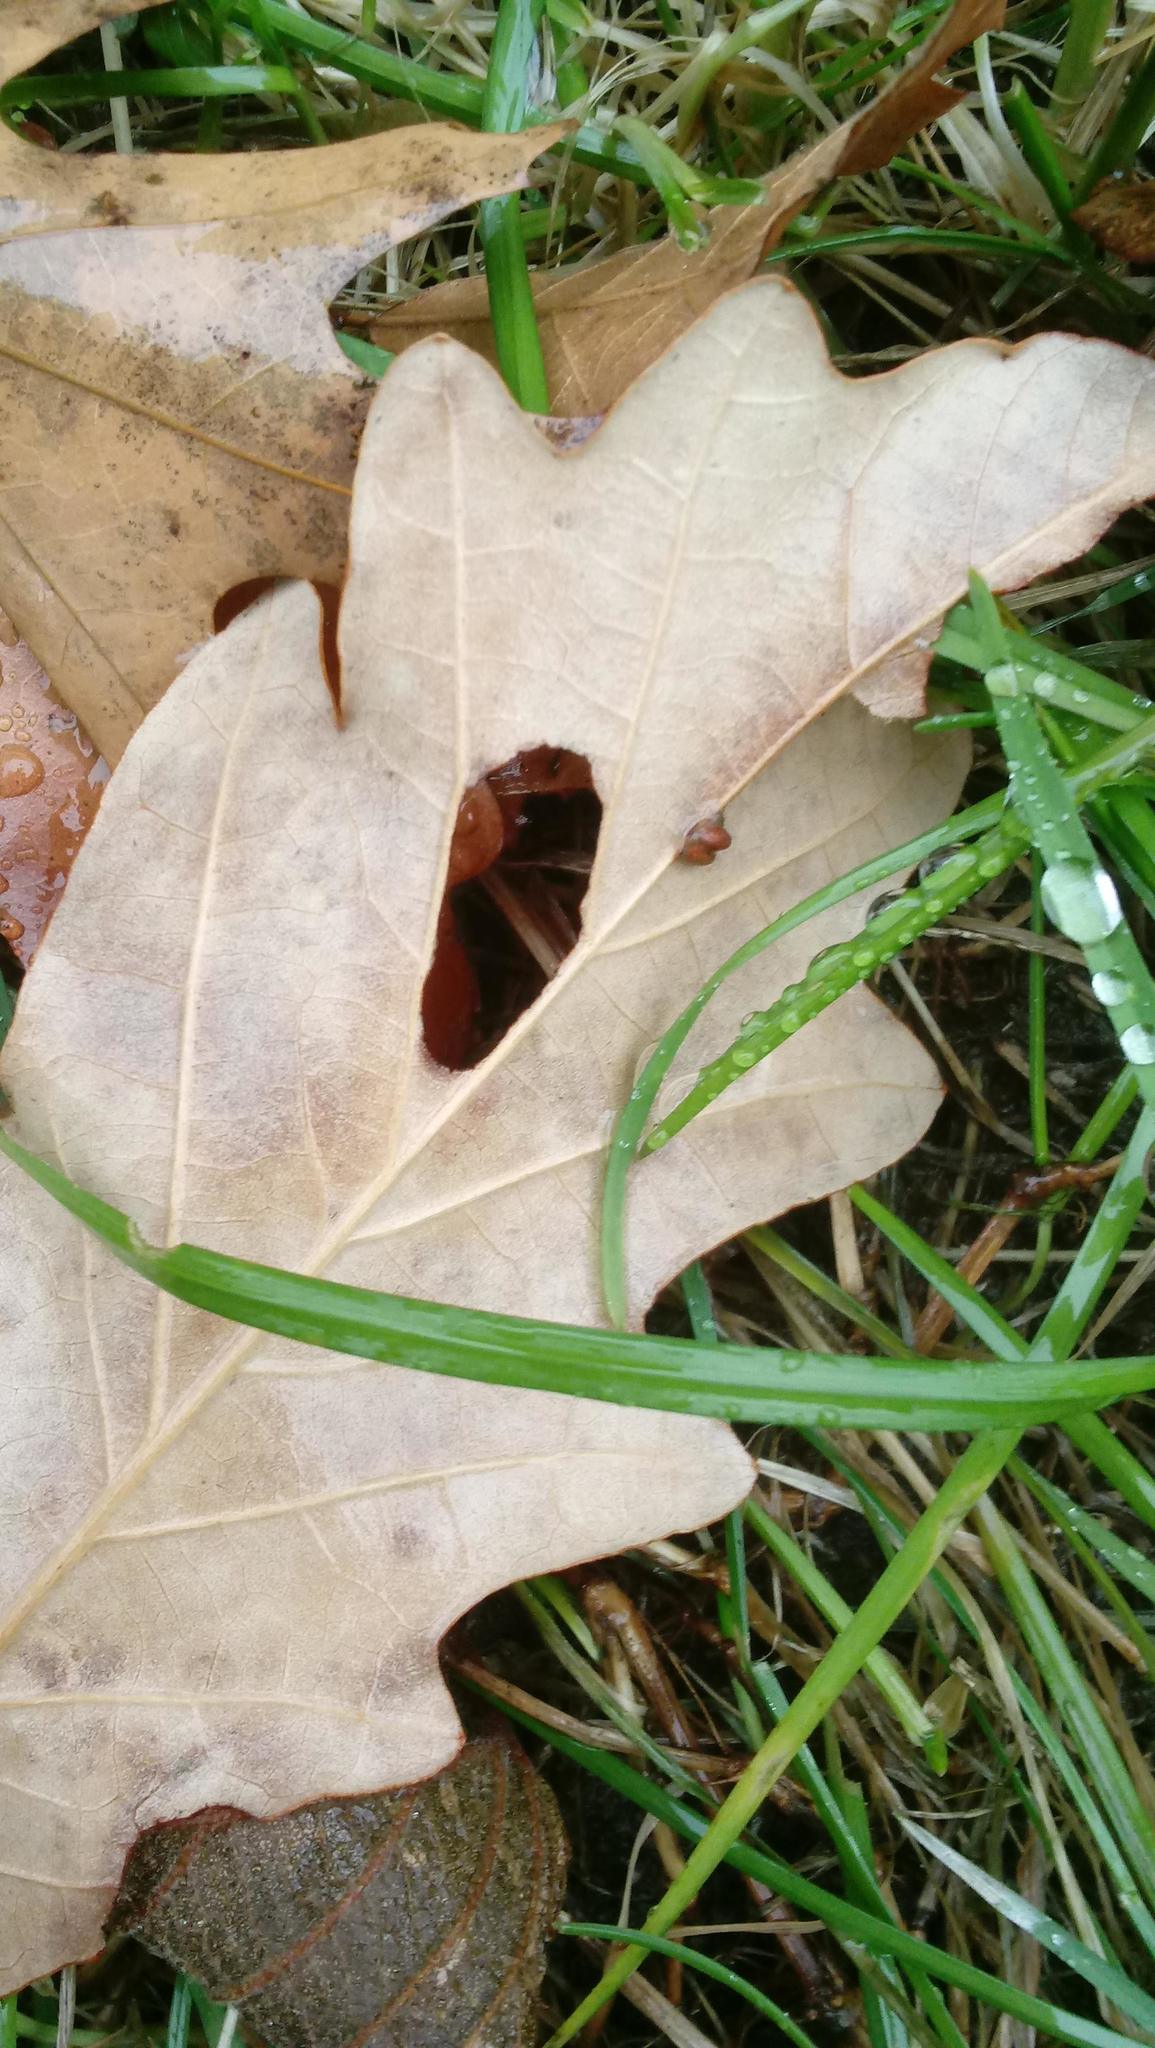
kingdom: Animalia
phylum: Arthropoda
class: Insecta
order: Hymenoptera
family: Cynipidae
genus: Andricus
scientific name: Andricus Druon ignotum
